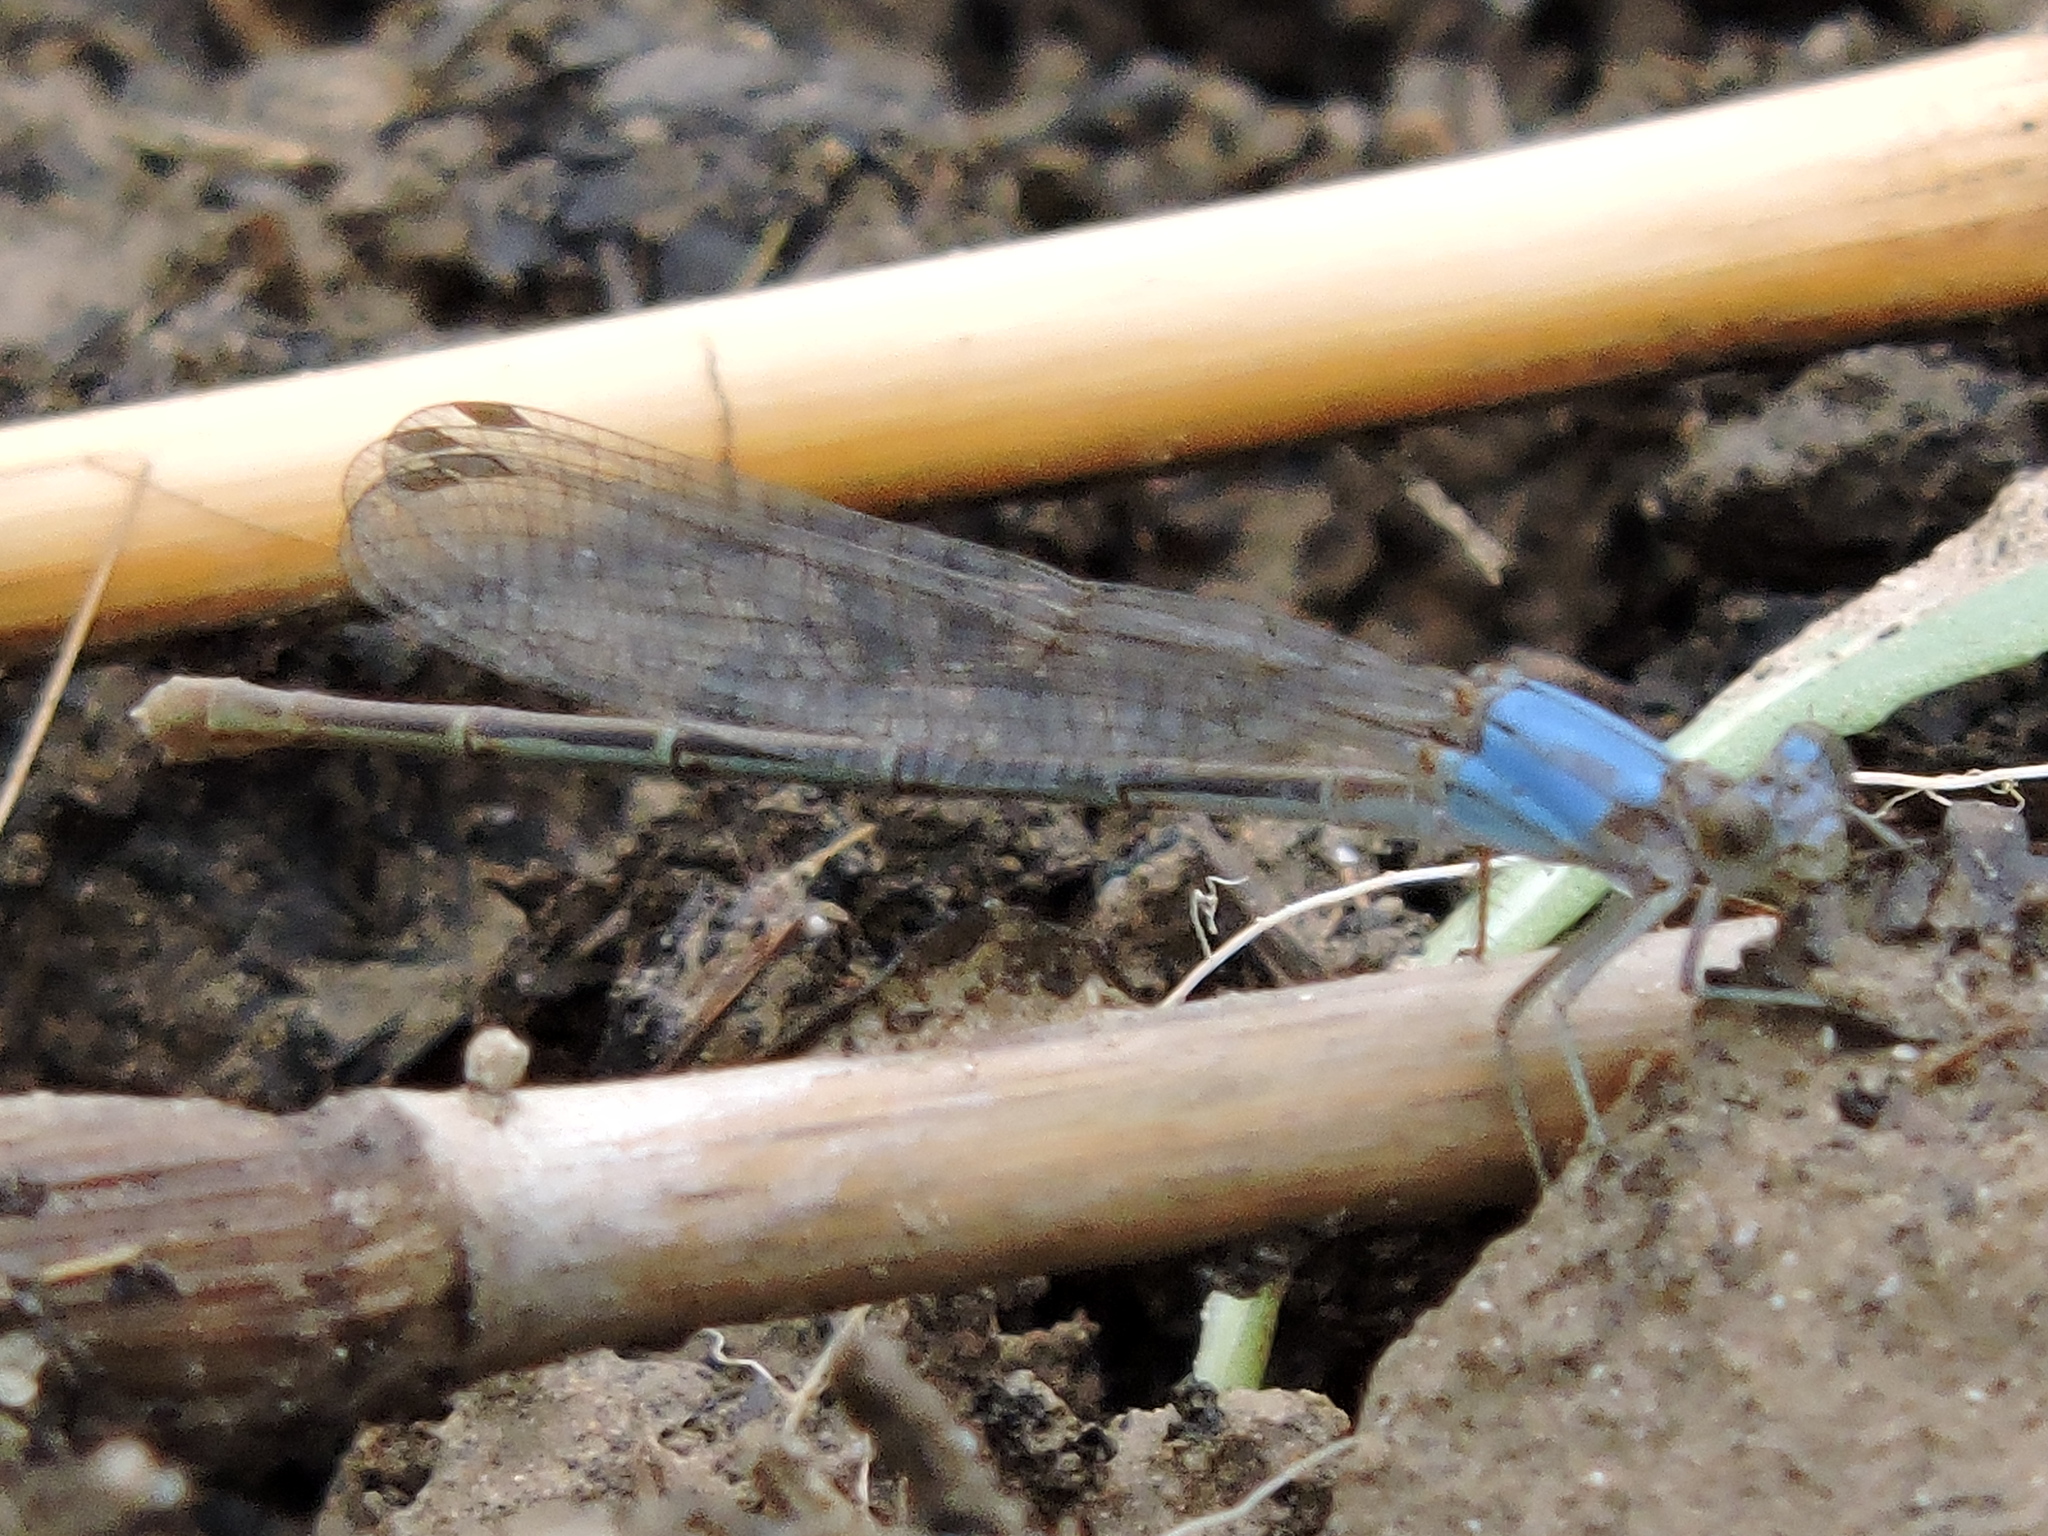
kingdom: Animalia
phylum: Arthropoda
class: Insecta
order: Odonata
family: Coenagrionidae
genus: Argia
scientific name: Argia moesta
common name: Powdered dancer
